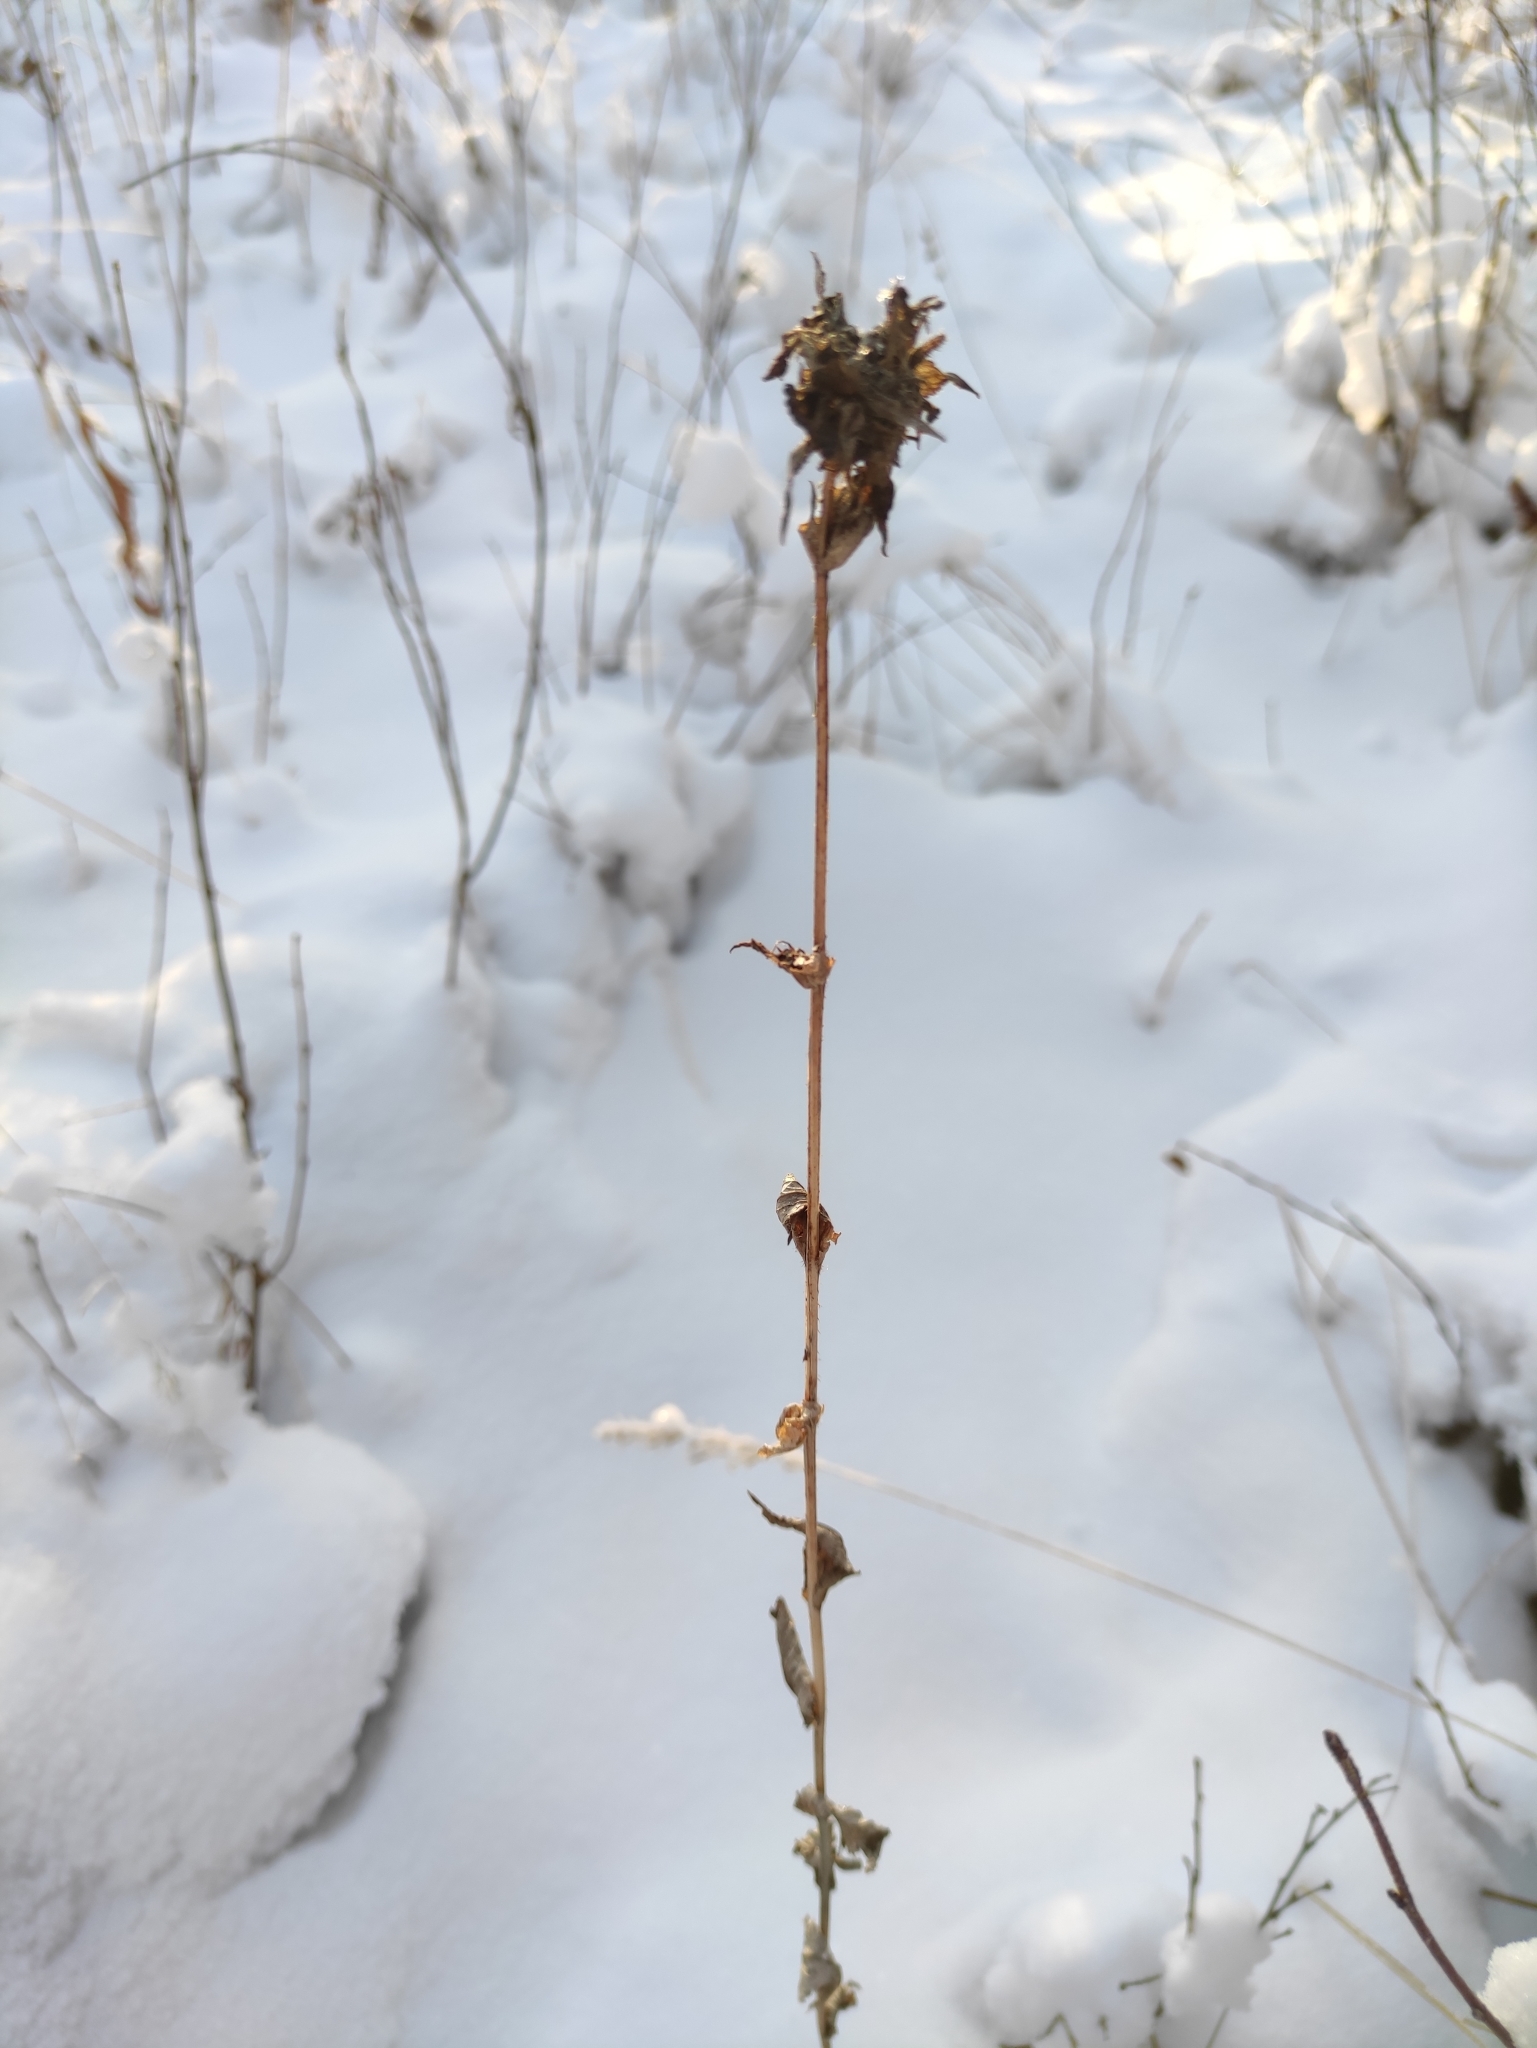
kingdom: Plantae
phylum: Tracheophyta
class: Magnoliopsida
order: Asterales
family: Campanulaceae
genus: Campanula
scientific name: Campanula glomerata
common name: Clustered bellflower
